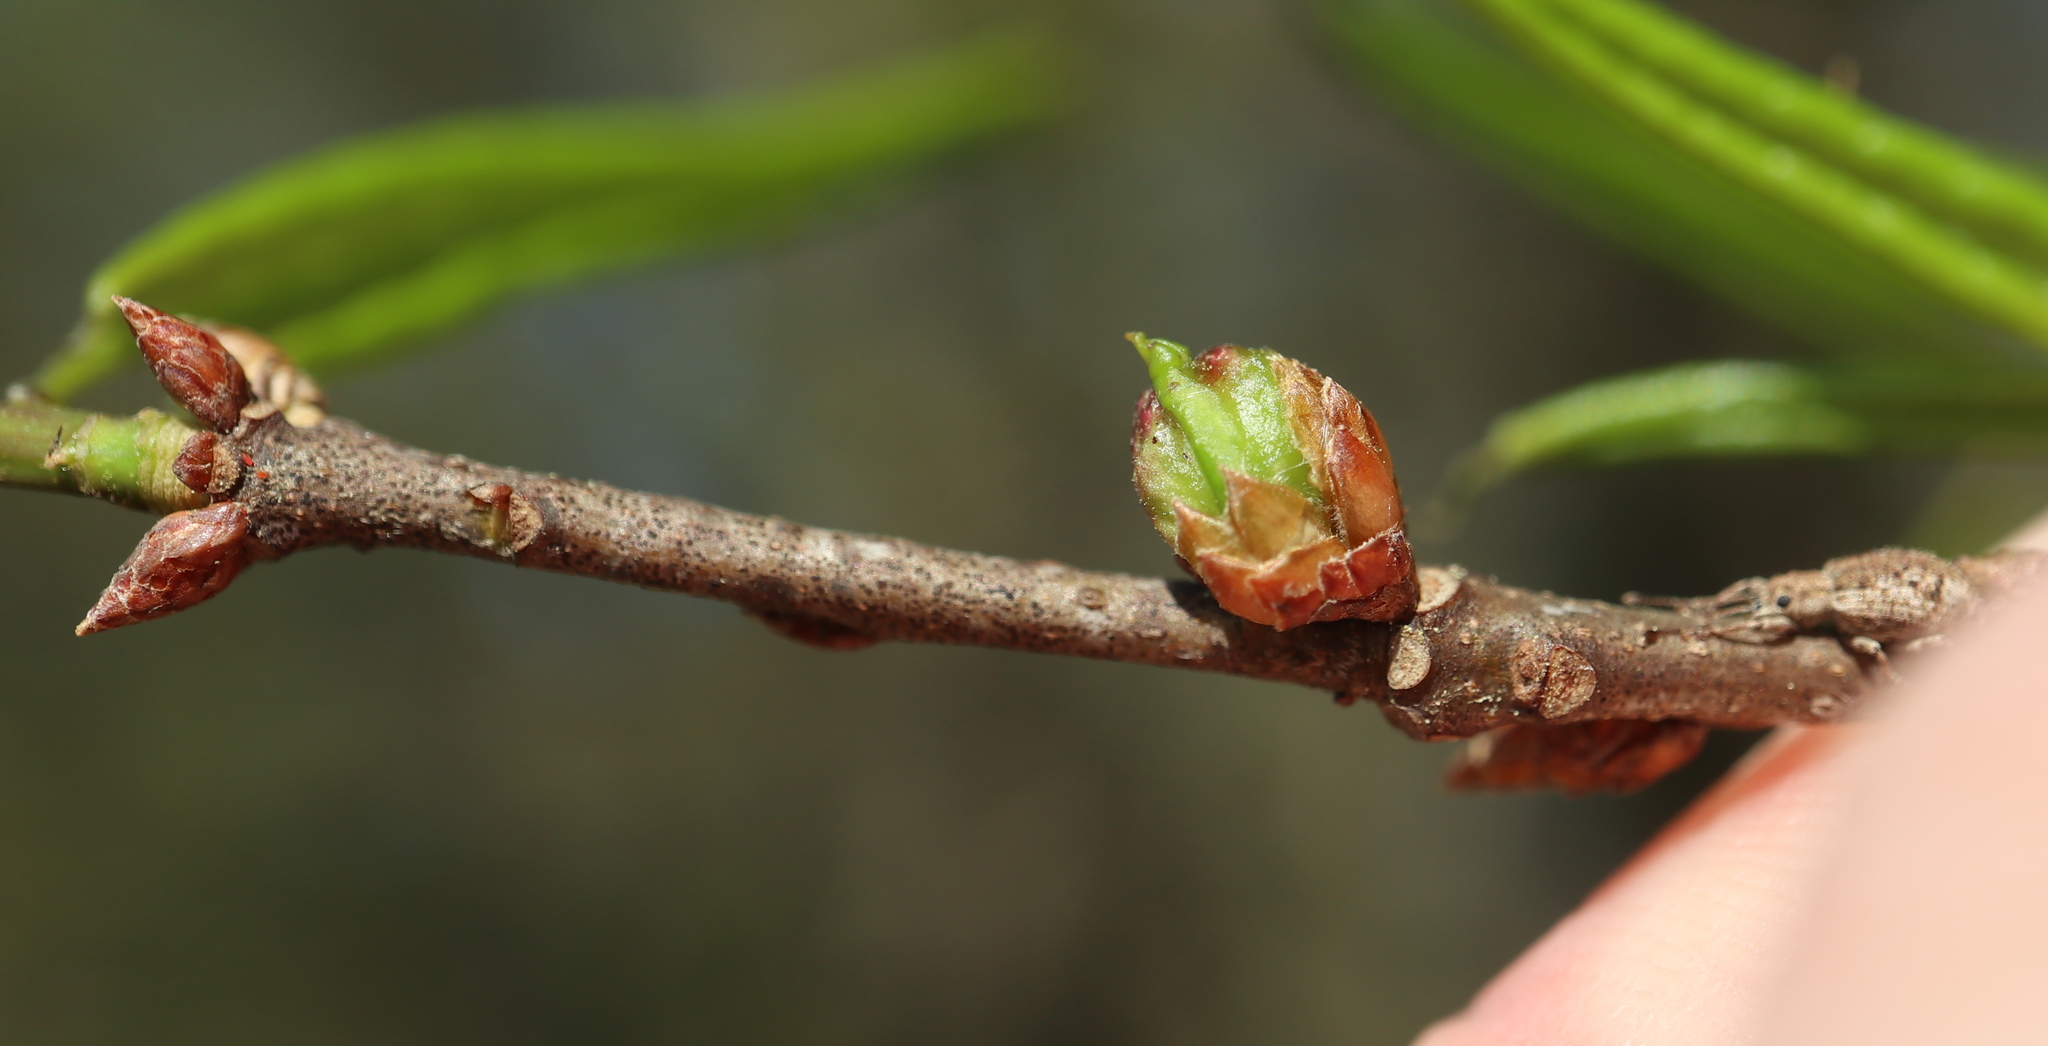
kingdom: Animalia
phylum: Arthropoda
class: Insecta
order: Hymenoptera
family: Cynipidae
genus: Dryocosmus
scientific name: Dryocosmus
